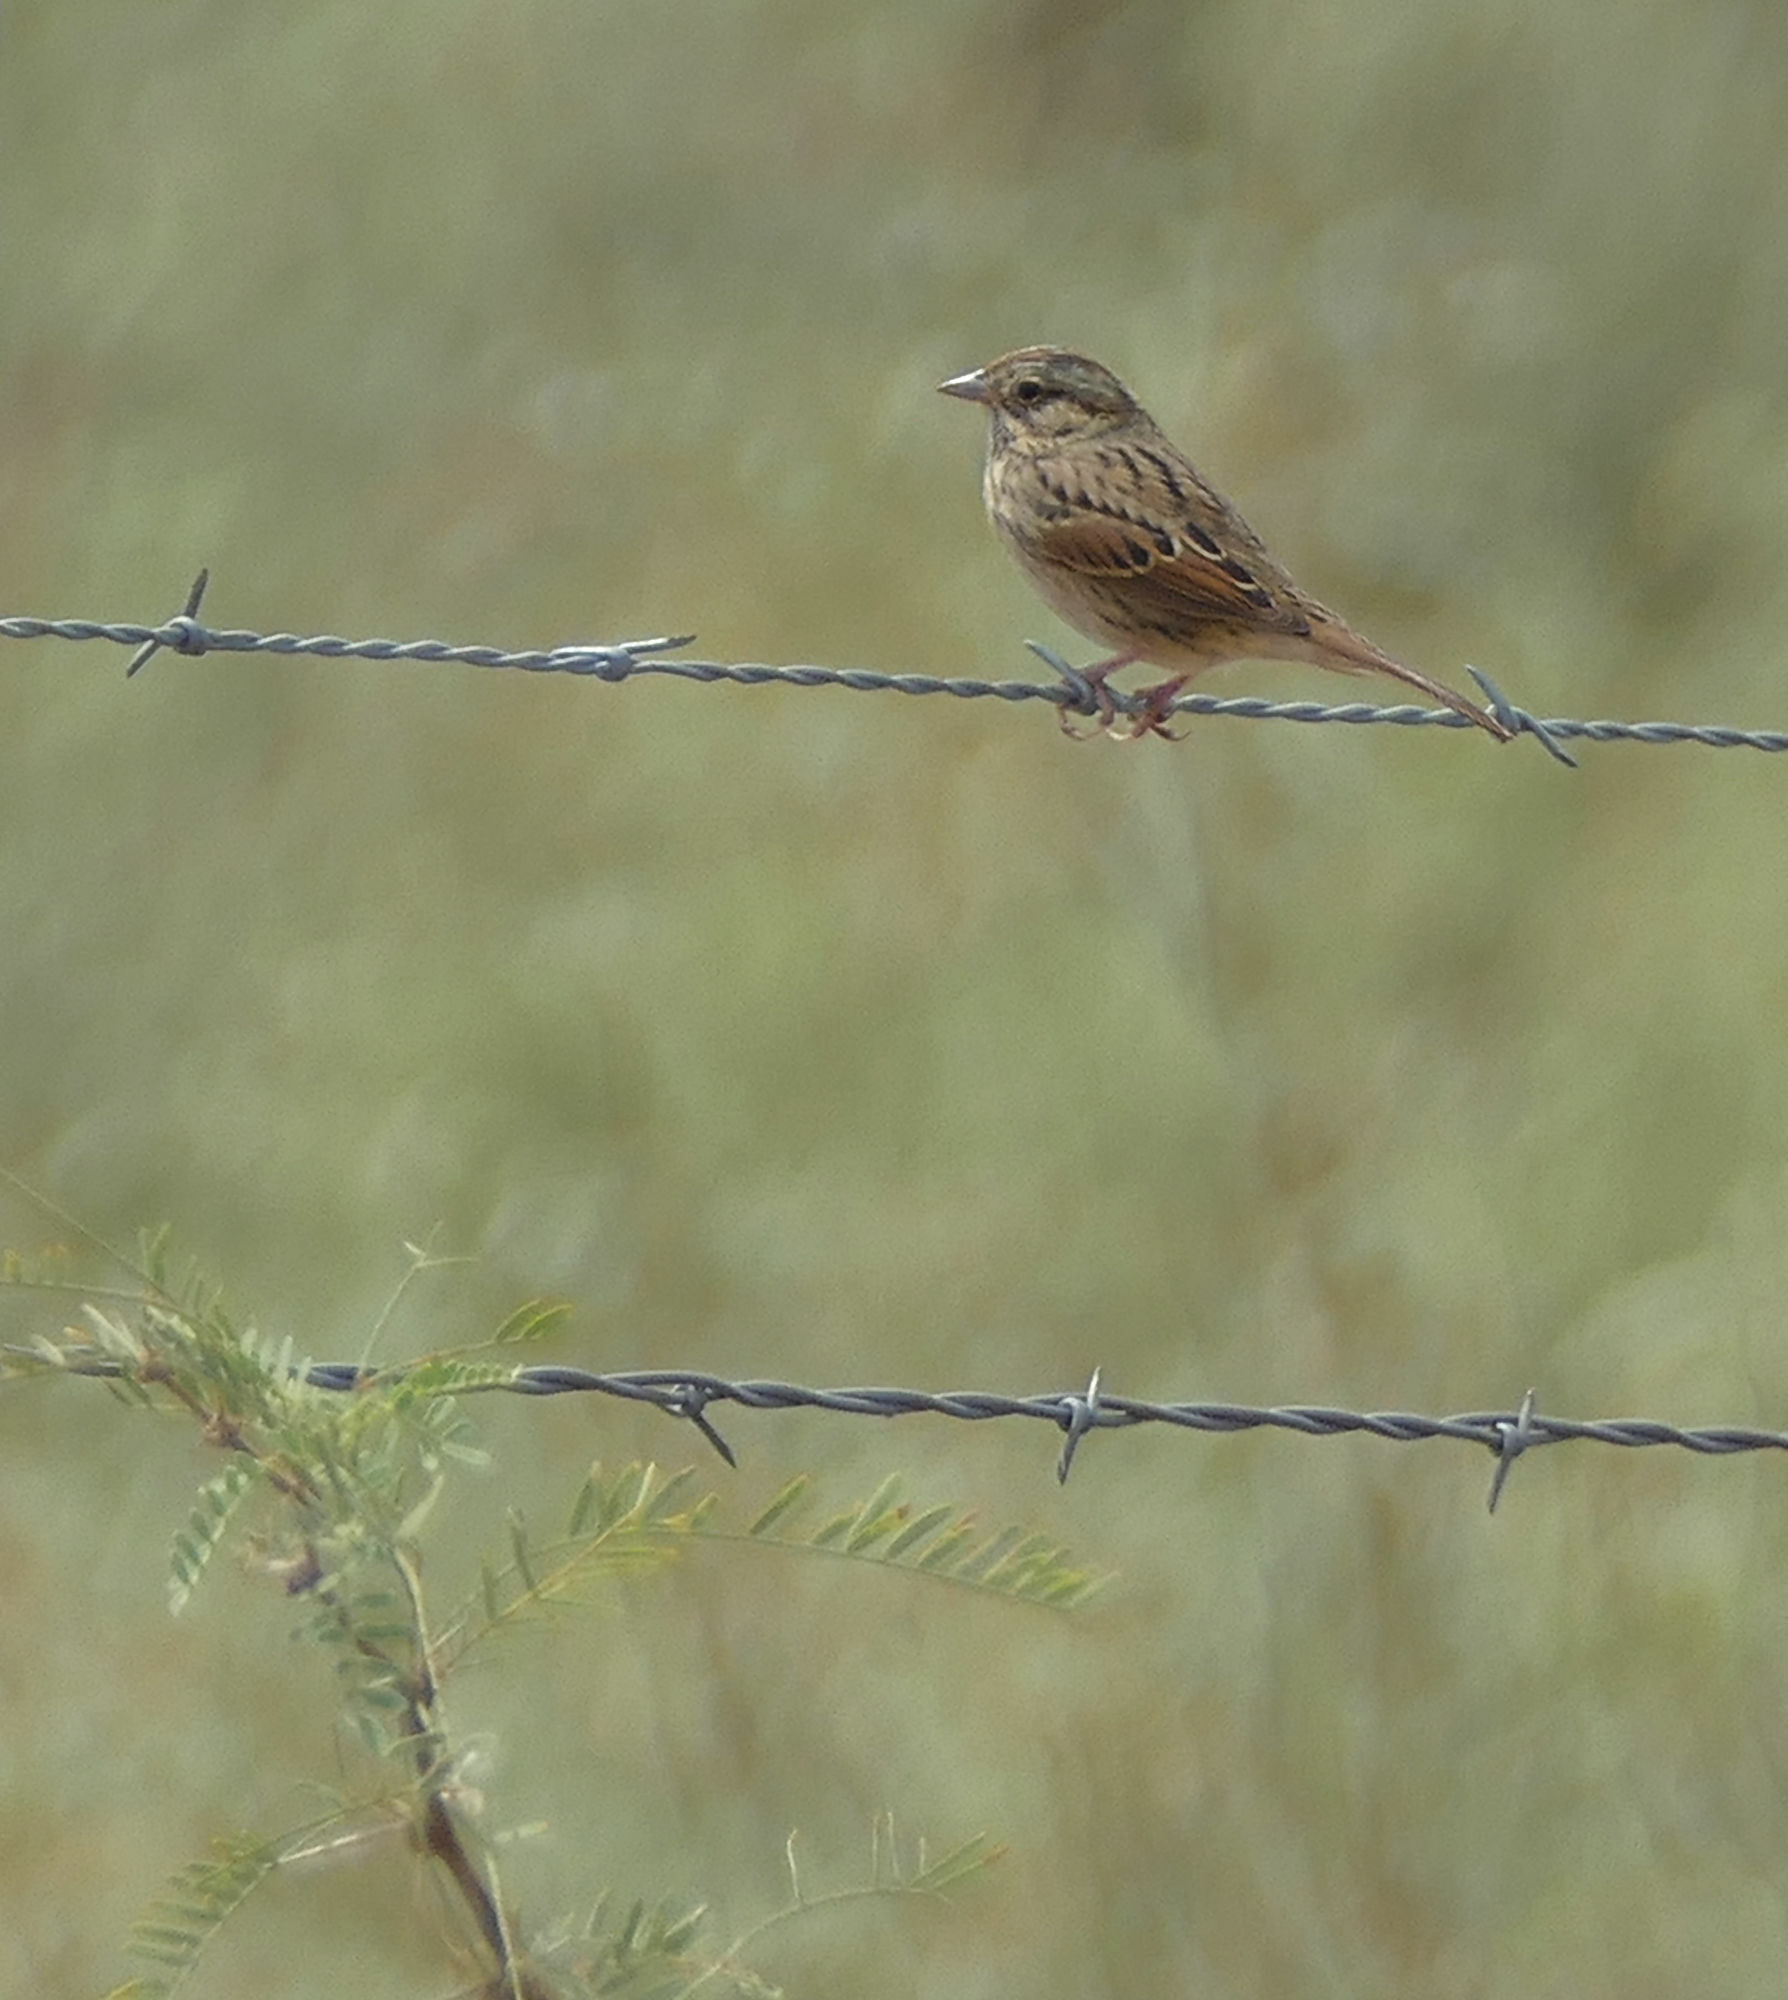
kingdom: Animalia
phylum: Chordata
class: Aves
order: Passeriformes
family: Passerellidae
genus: Melospiza
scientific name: Melospiza lincolnii
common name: Lincoln's sparrow
